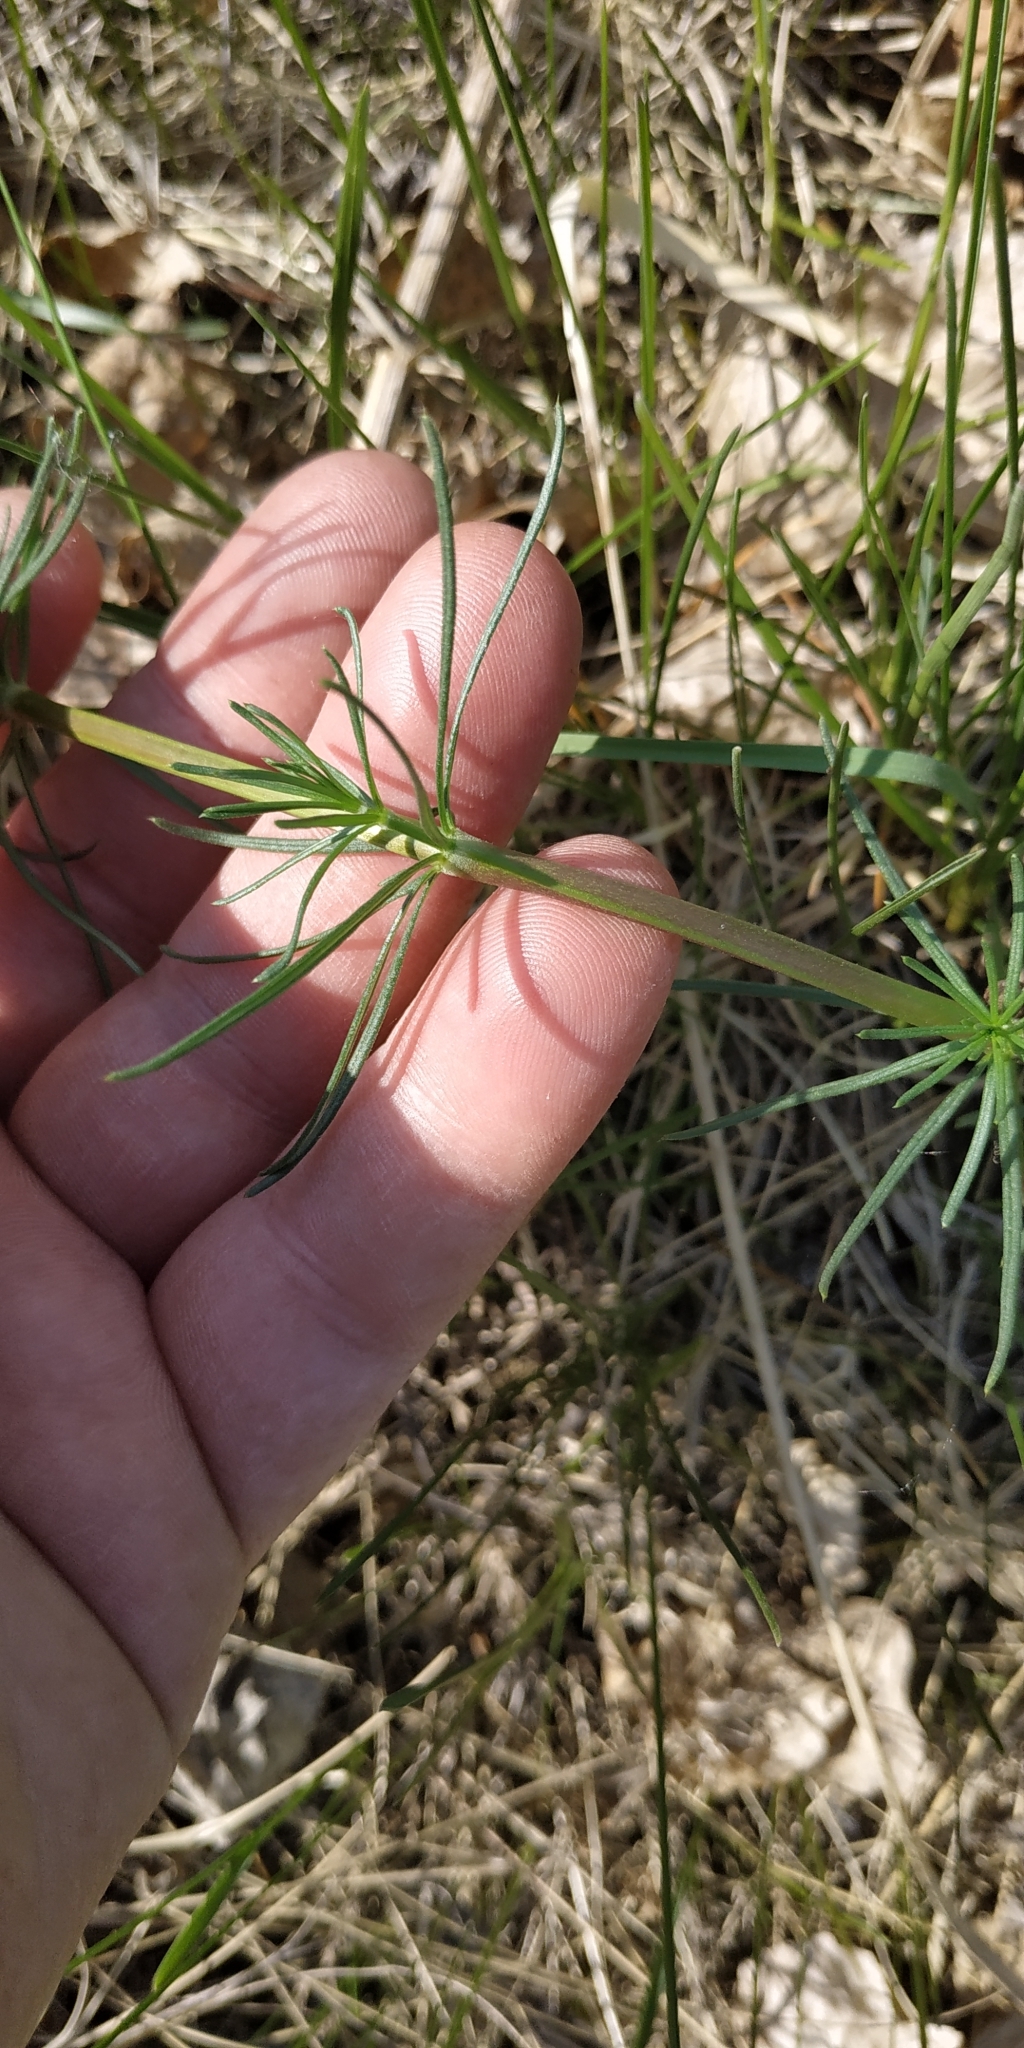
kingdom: Plantae
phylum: Tracheophyta
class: Magnoliopsida
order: Gentianales
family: Rubiaceae
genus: Galium
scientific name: Galium verum
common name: Lady's bedstraw
